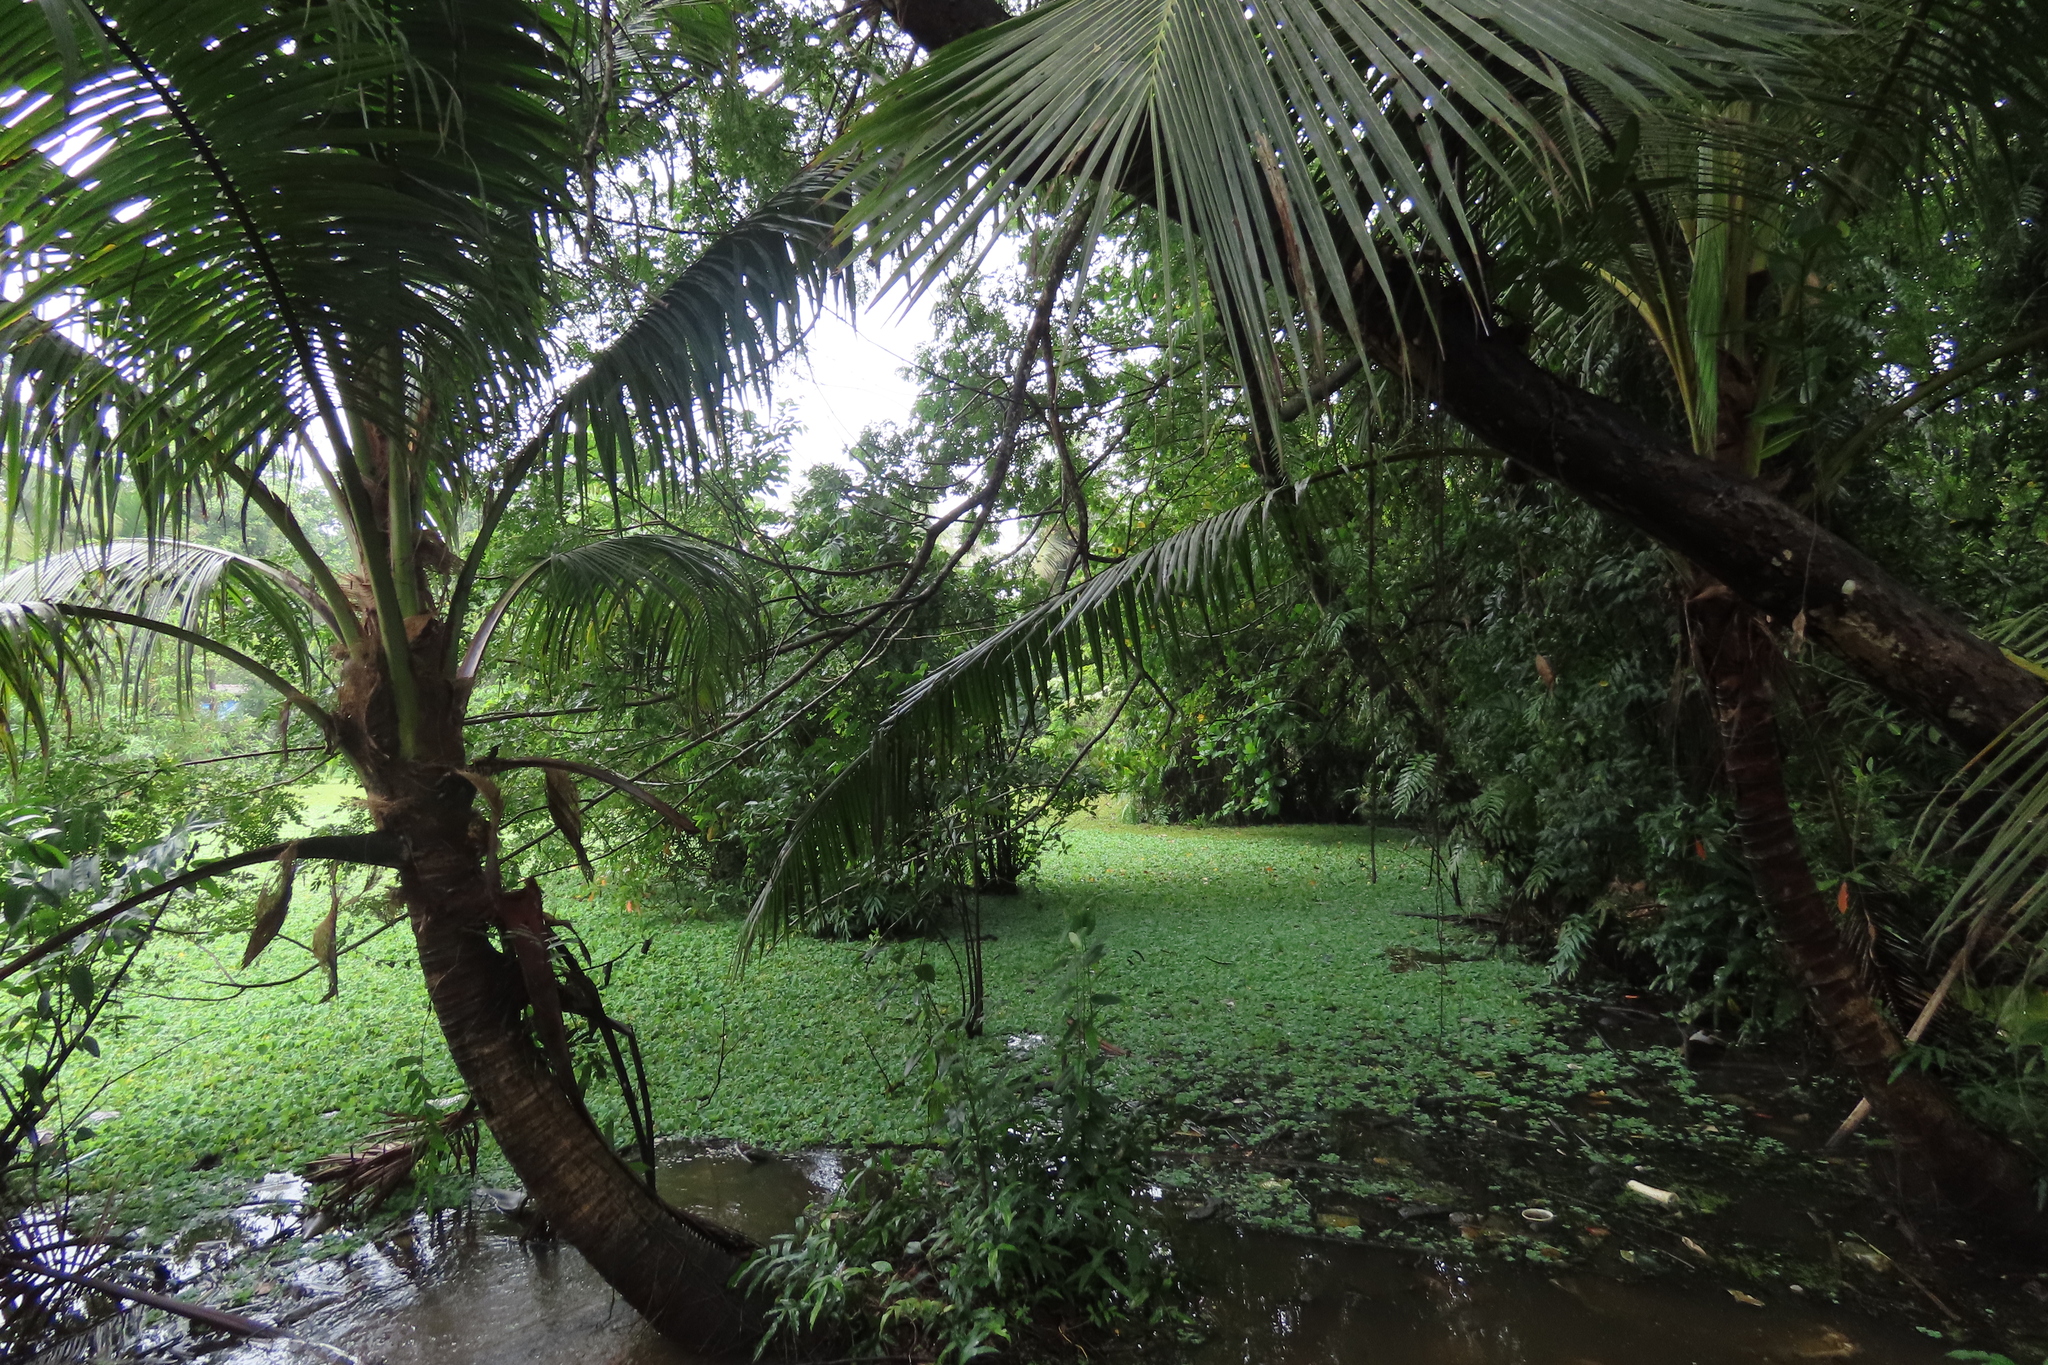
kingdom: Plantae
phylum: Tracheophyta
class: Liliopsida
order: Arecales
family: Arecaceae
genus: Cocos
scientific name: Cocos nucifera
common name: Coconut palm
